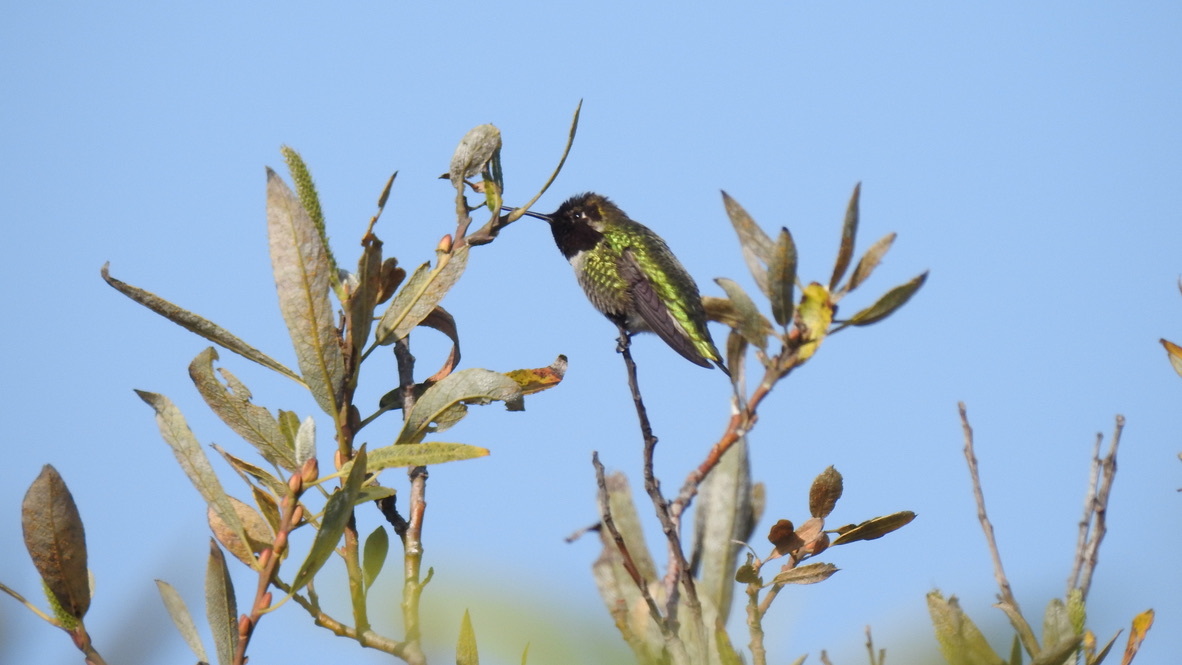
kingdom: Animalia
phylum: Chordata
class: Aves
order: Apodiformes
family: Trochilidae
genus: Calypte
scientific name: Calypte anna
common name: Anna's hummingbird
